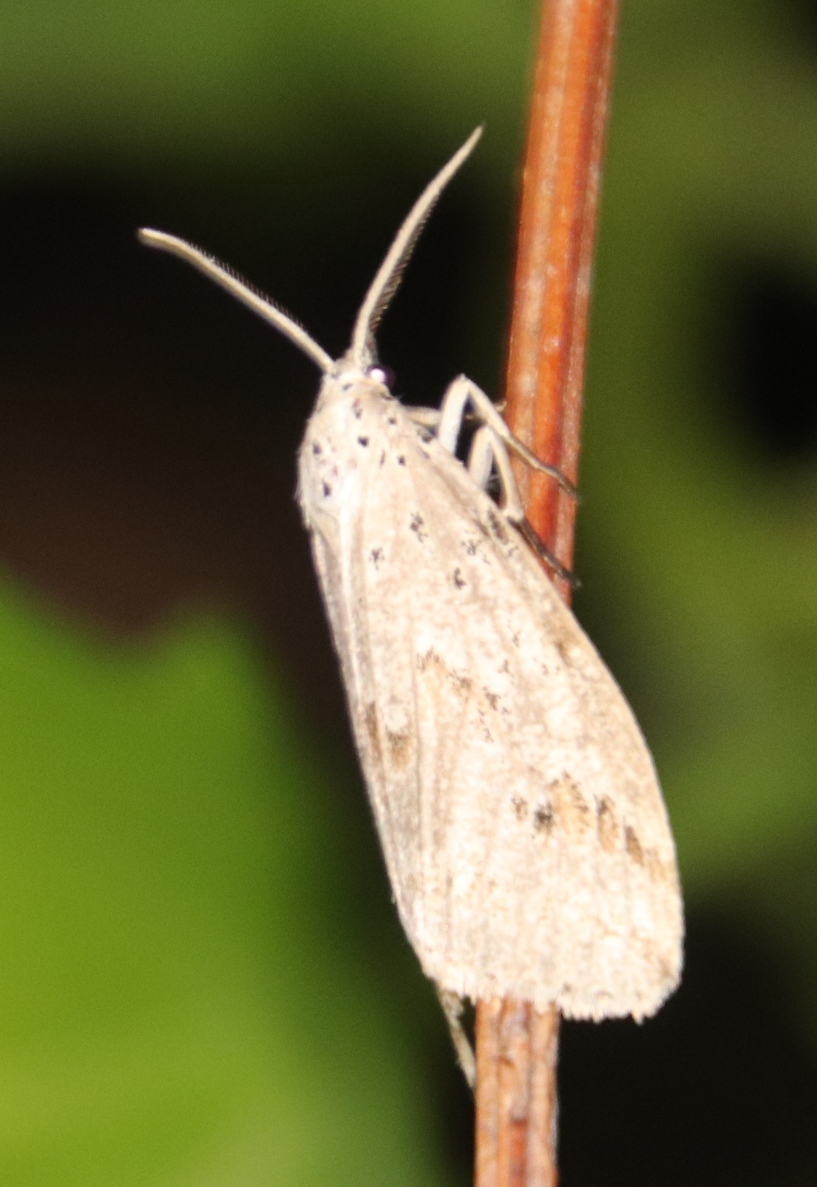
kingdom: Animalia
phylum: Arthropoda
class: Insecta
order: Lepidoptera
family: Erebidae
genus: Galtara
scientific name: Galtara rostrata
